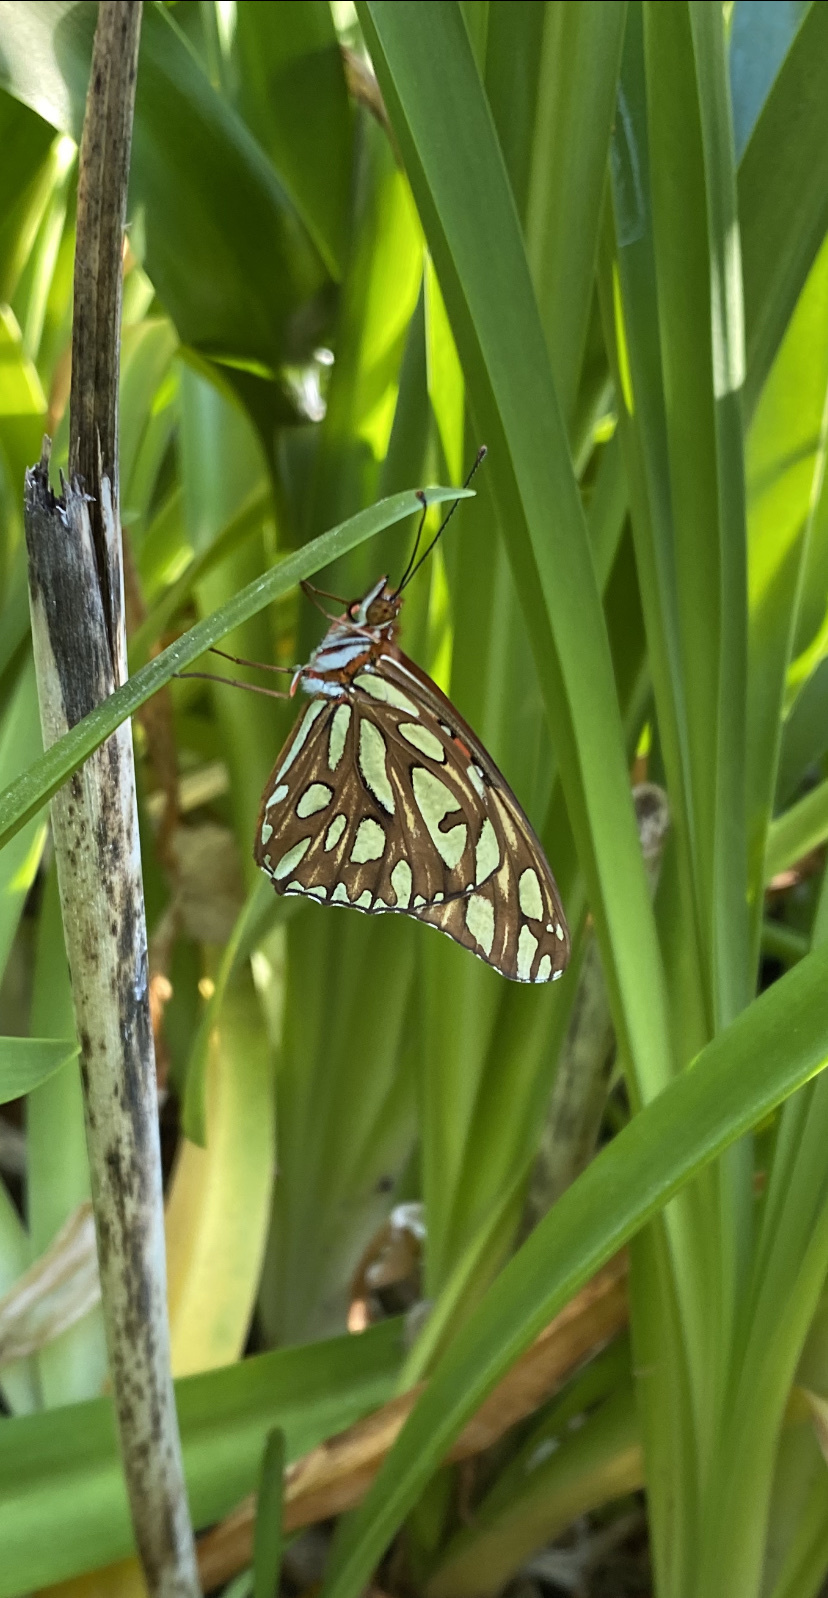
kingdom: Animalia
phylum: Arthropoda
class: Insecta
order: Lepidoptera
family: Nymphalidae
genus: Dione
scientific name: Dione vanillae
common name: Gulf fritillary
